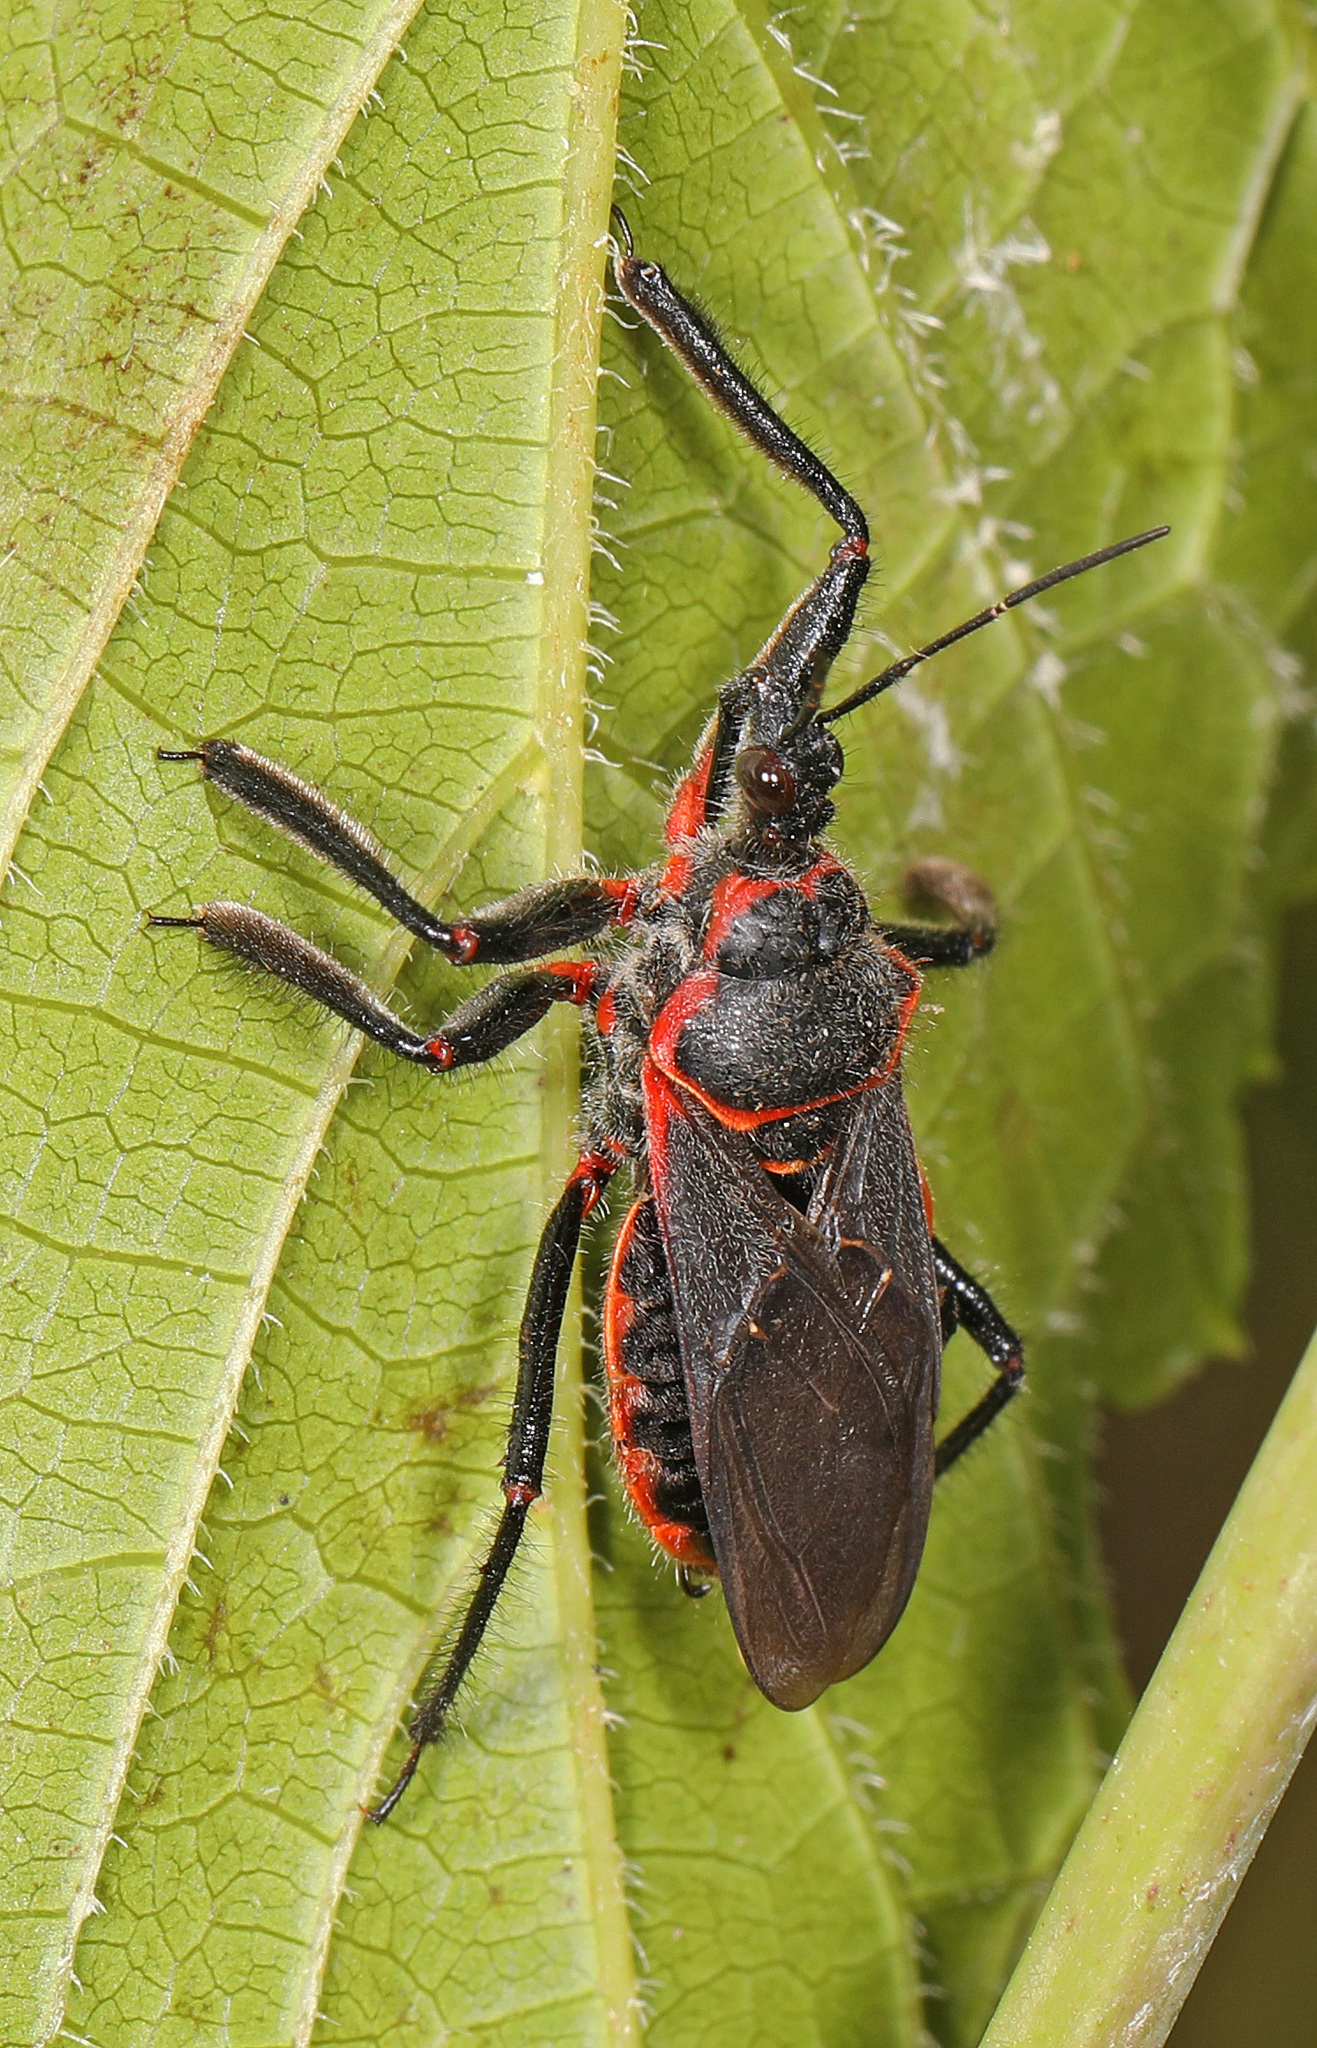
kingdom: Animalia
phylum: Arthropoda
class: Insecta
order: Hemiptera
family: Reduviidae
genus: Apiomerus
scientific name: Apiomerus crassipes
